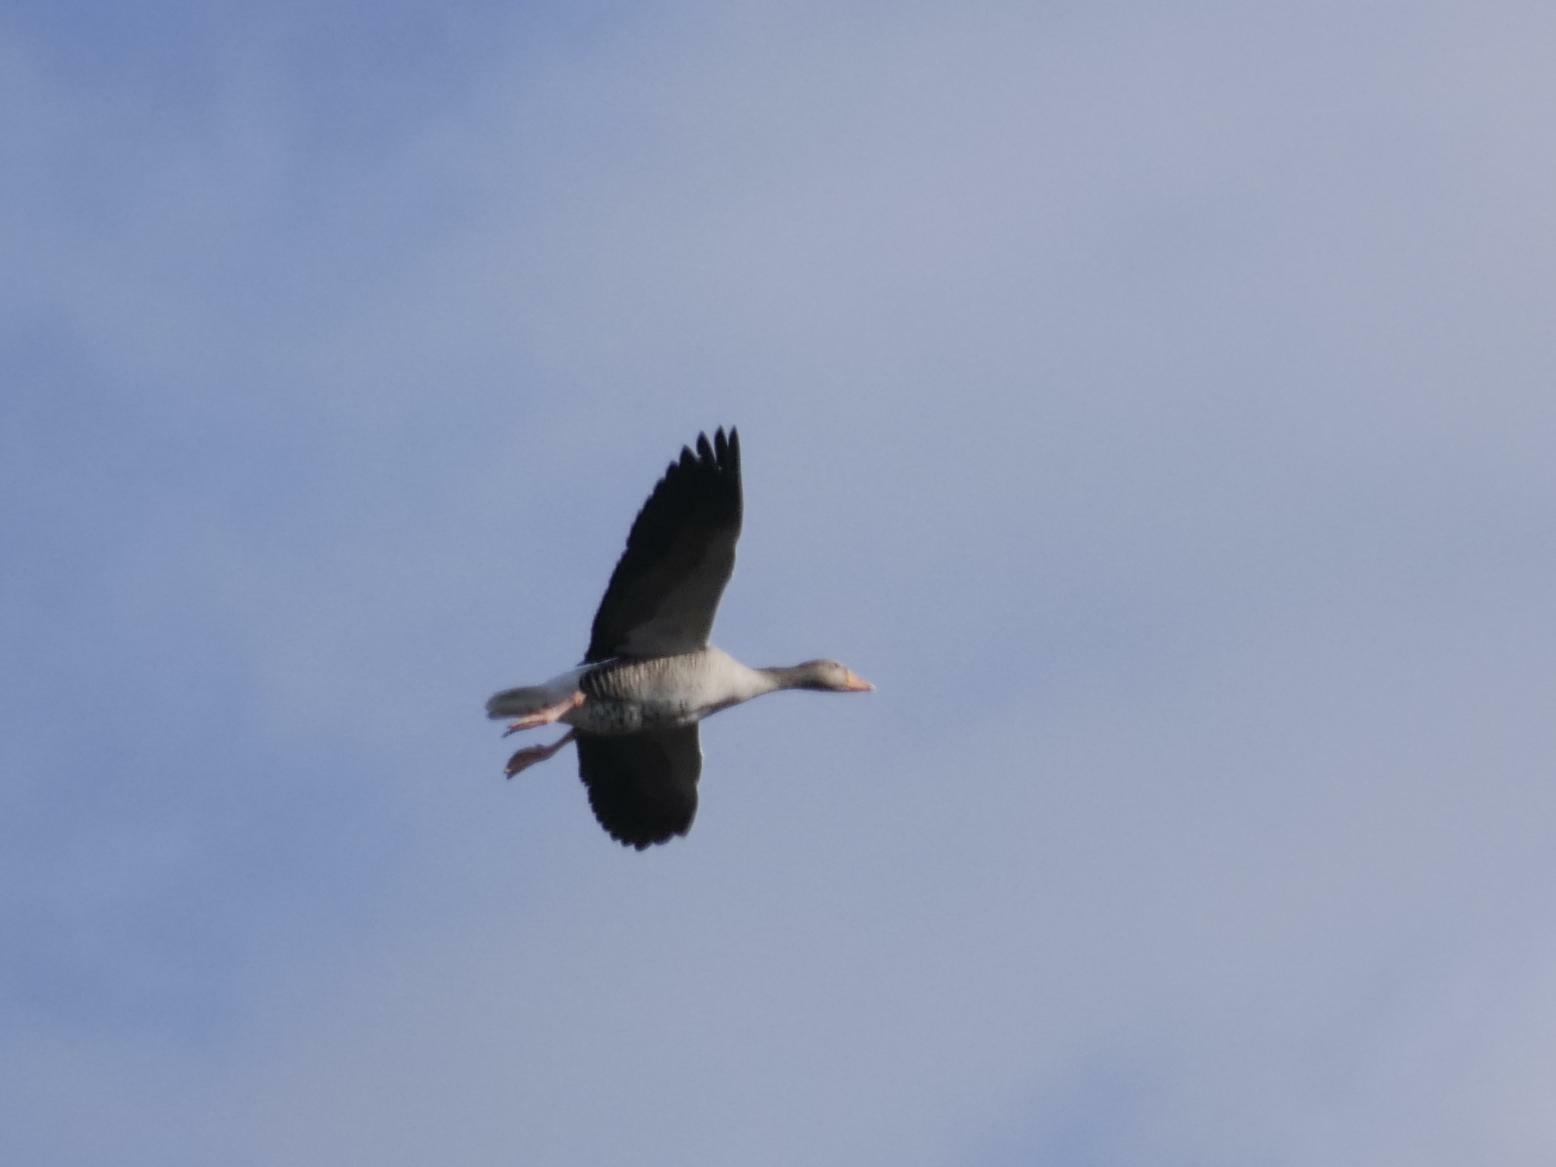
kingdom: Animalia
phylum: Chordata
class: Aves
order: Anseriformes
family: Anatidae
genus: Anser
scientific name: Anser anser
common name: Greylag goose
